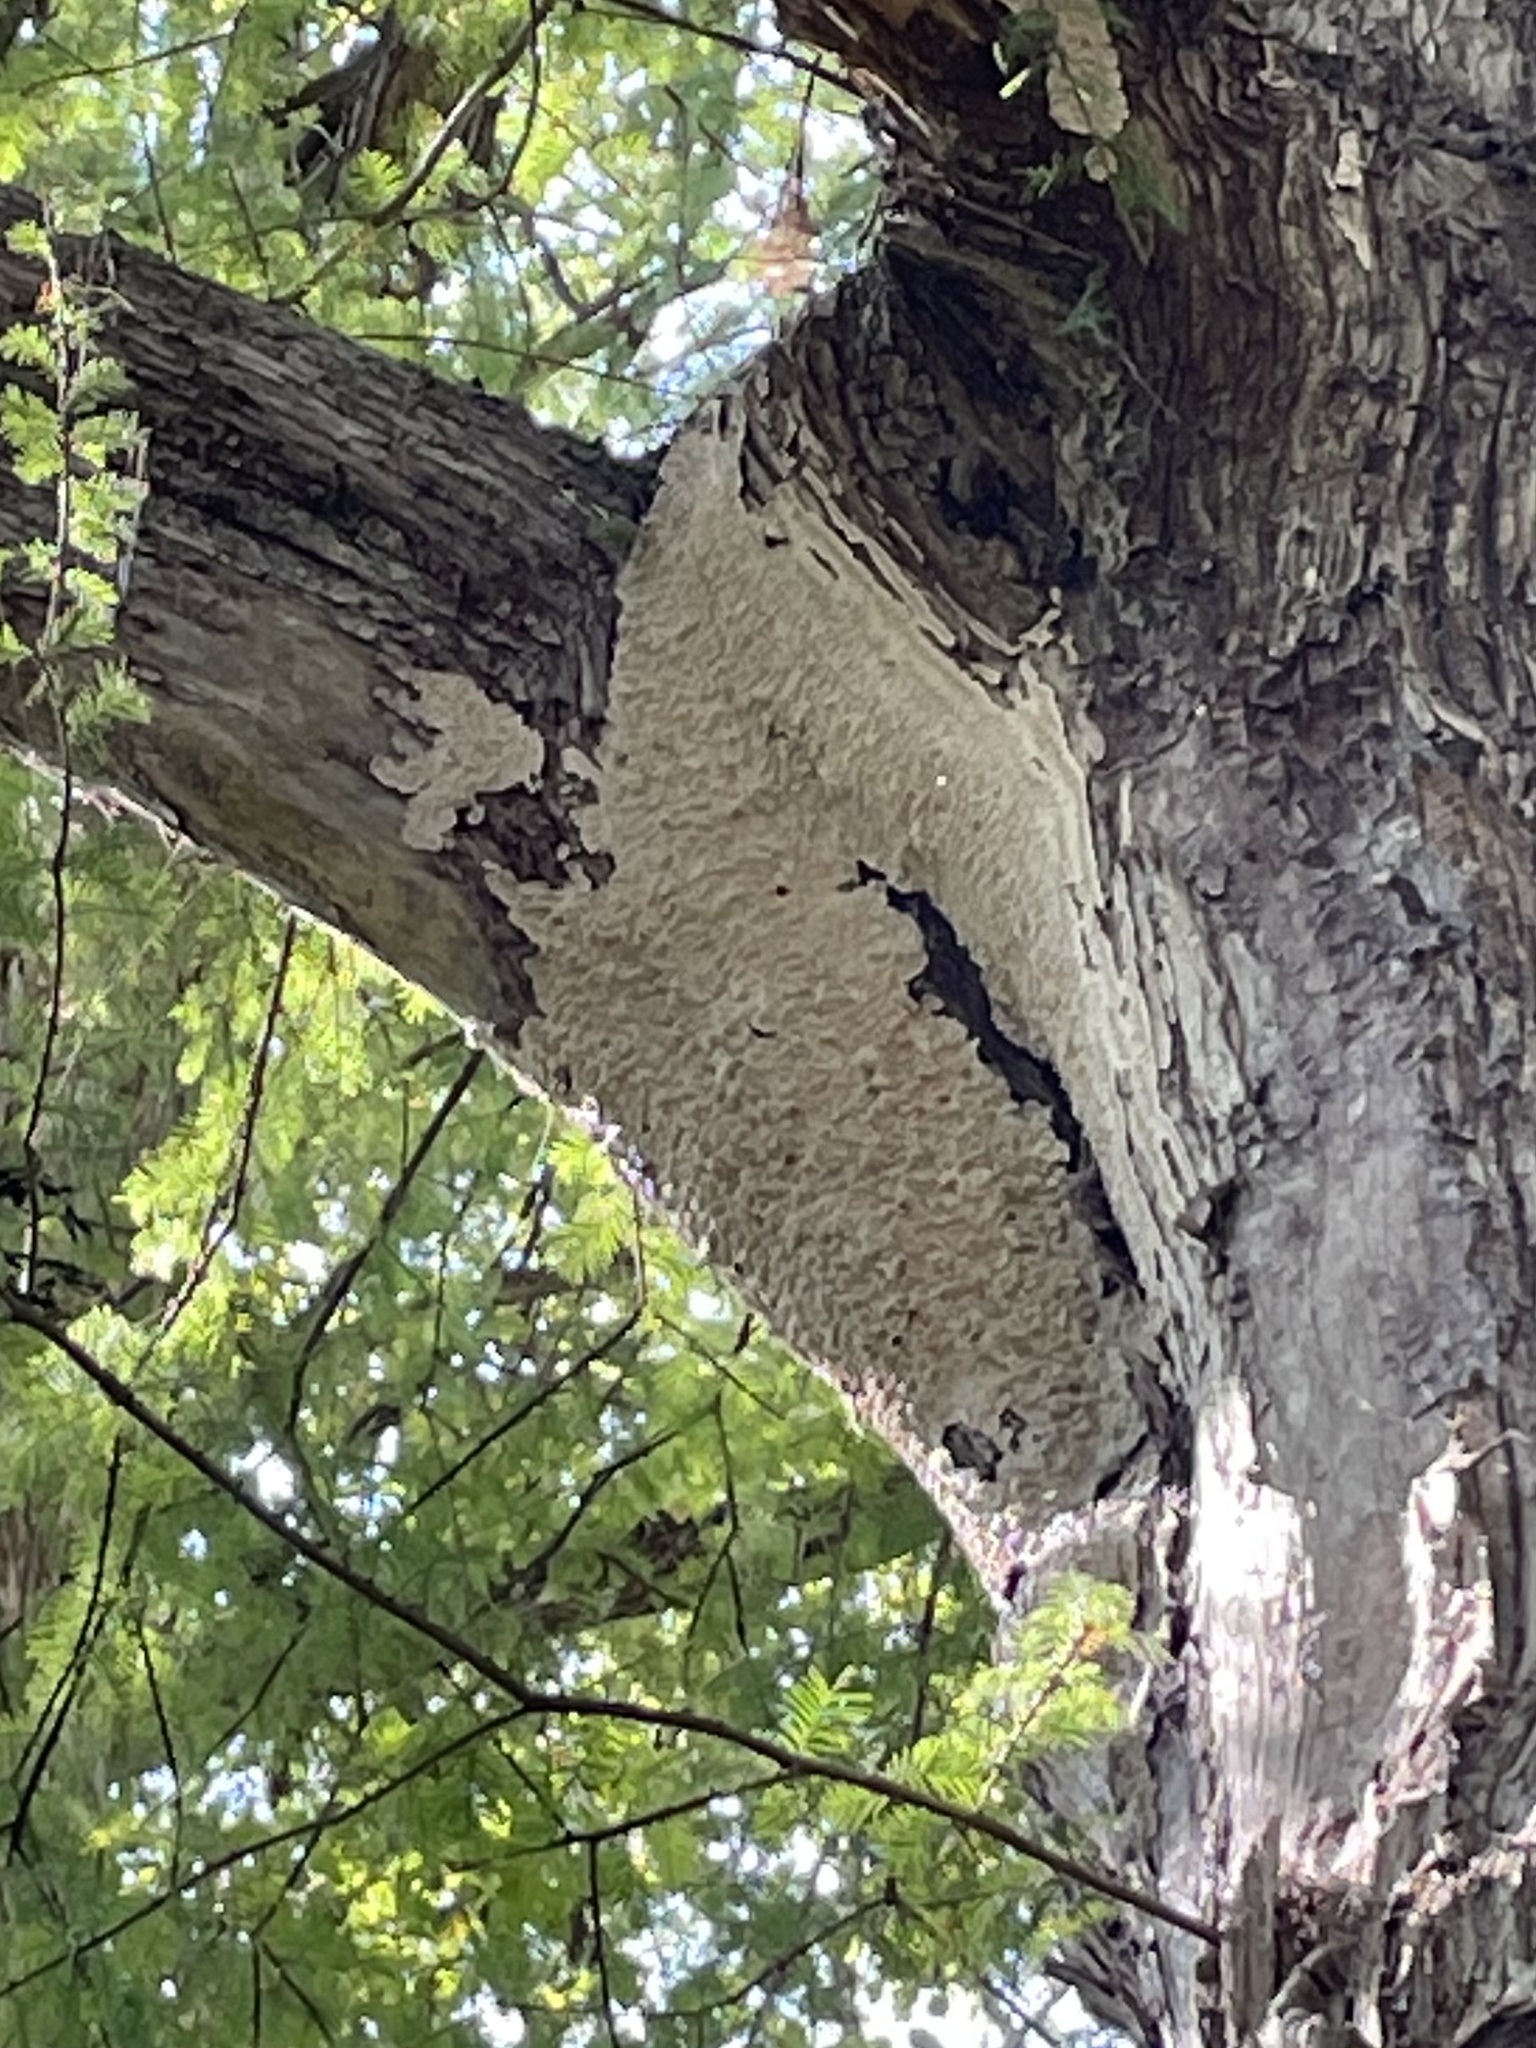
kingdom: Fungi
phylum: Basidiomycota
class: Agaricomycetes
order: Polyporales
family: Irpicaceae
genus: Irpex
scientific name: Irpex lacteus
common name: Milk-white toothed polypore
